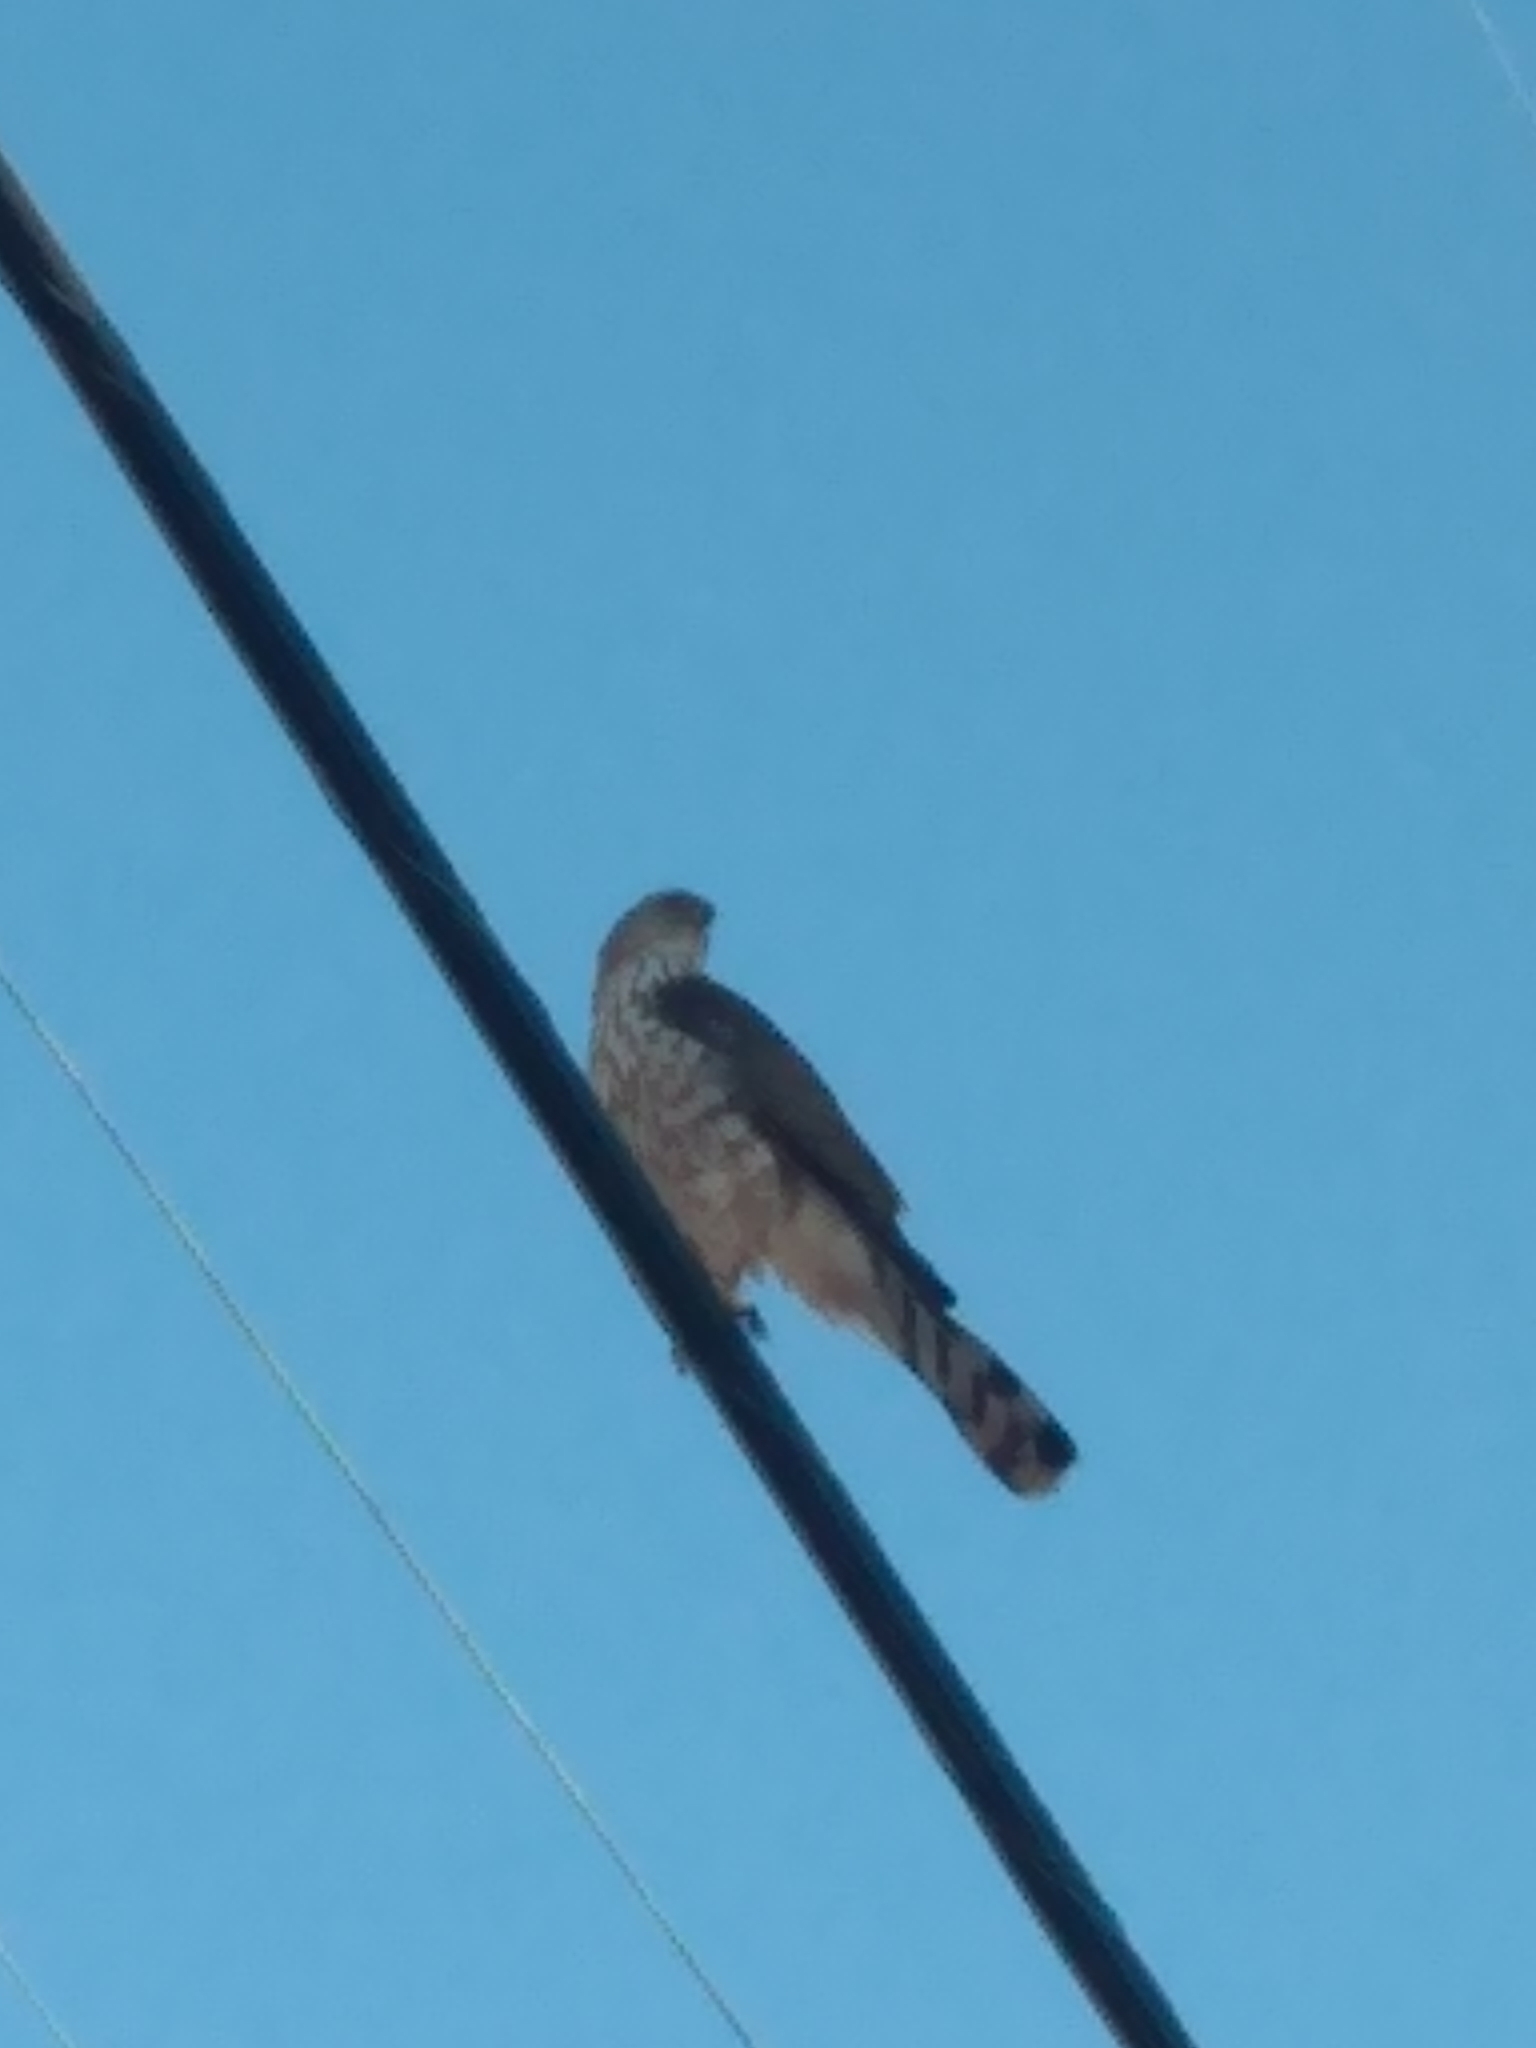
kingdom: Animalia
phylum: Chordata
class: Aves
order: Accipitriformes
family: Accipitridae
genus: Accipiter
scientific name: Accipiter cooperii
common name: Cooper's hawk
